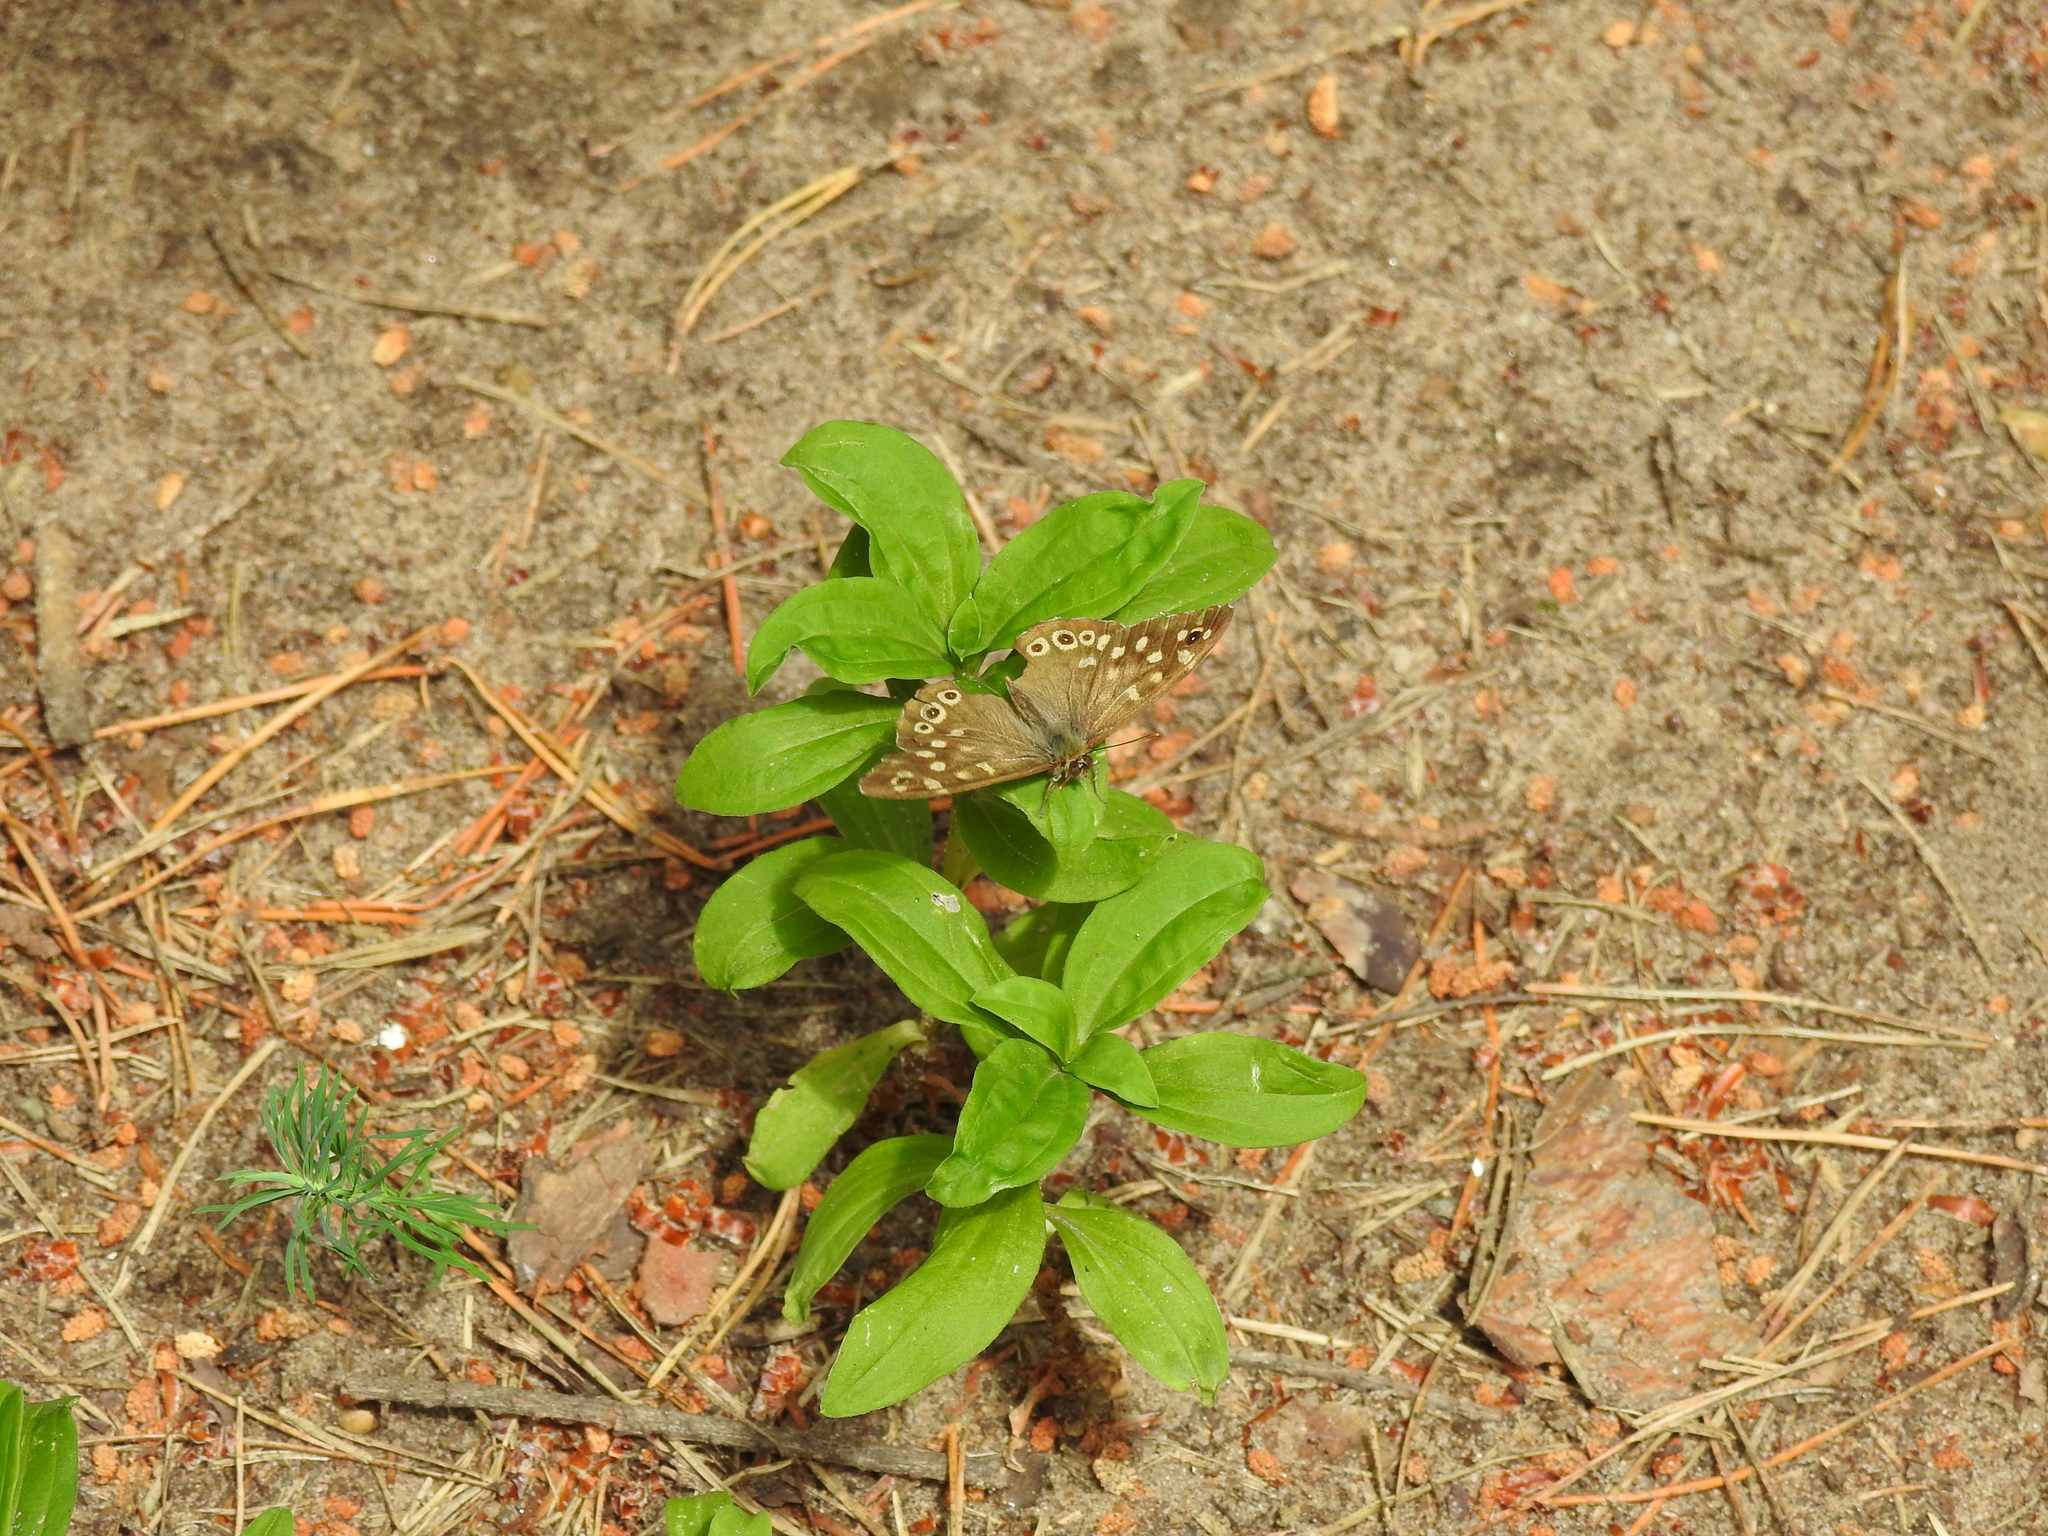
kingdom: Animalia
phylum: Arthropoda
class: Insecta
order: Lepidoptera
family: Nymphalidae
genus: Pararge
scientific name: Pararge aegeria
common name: Speckled wood
